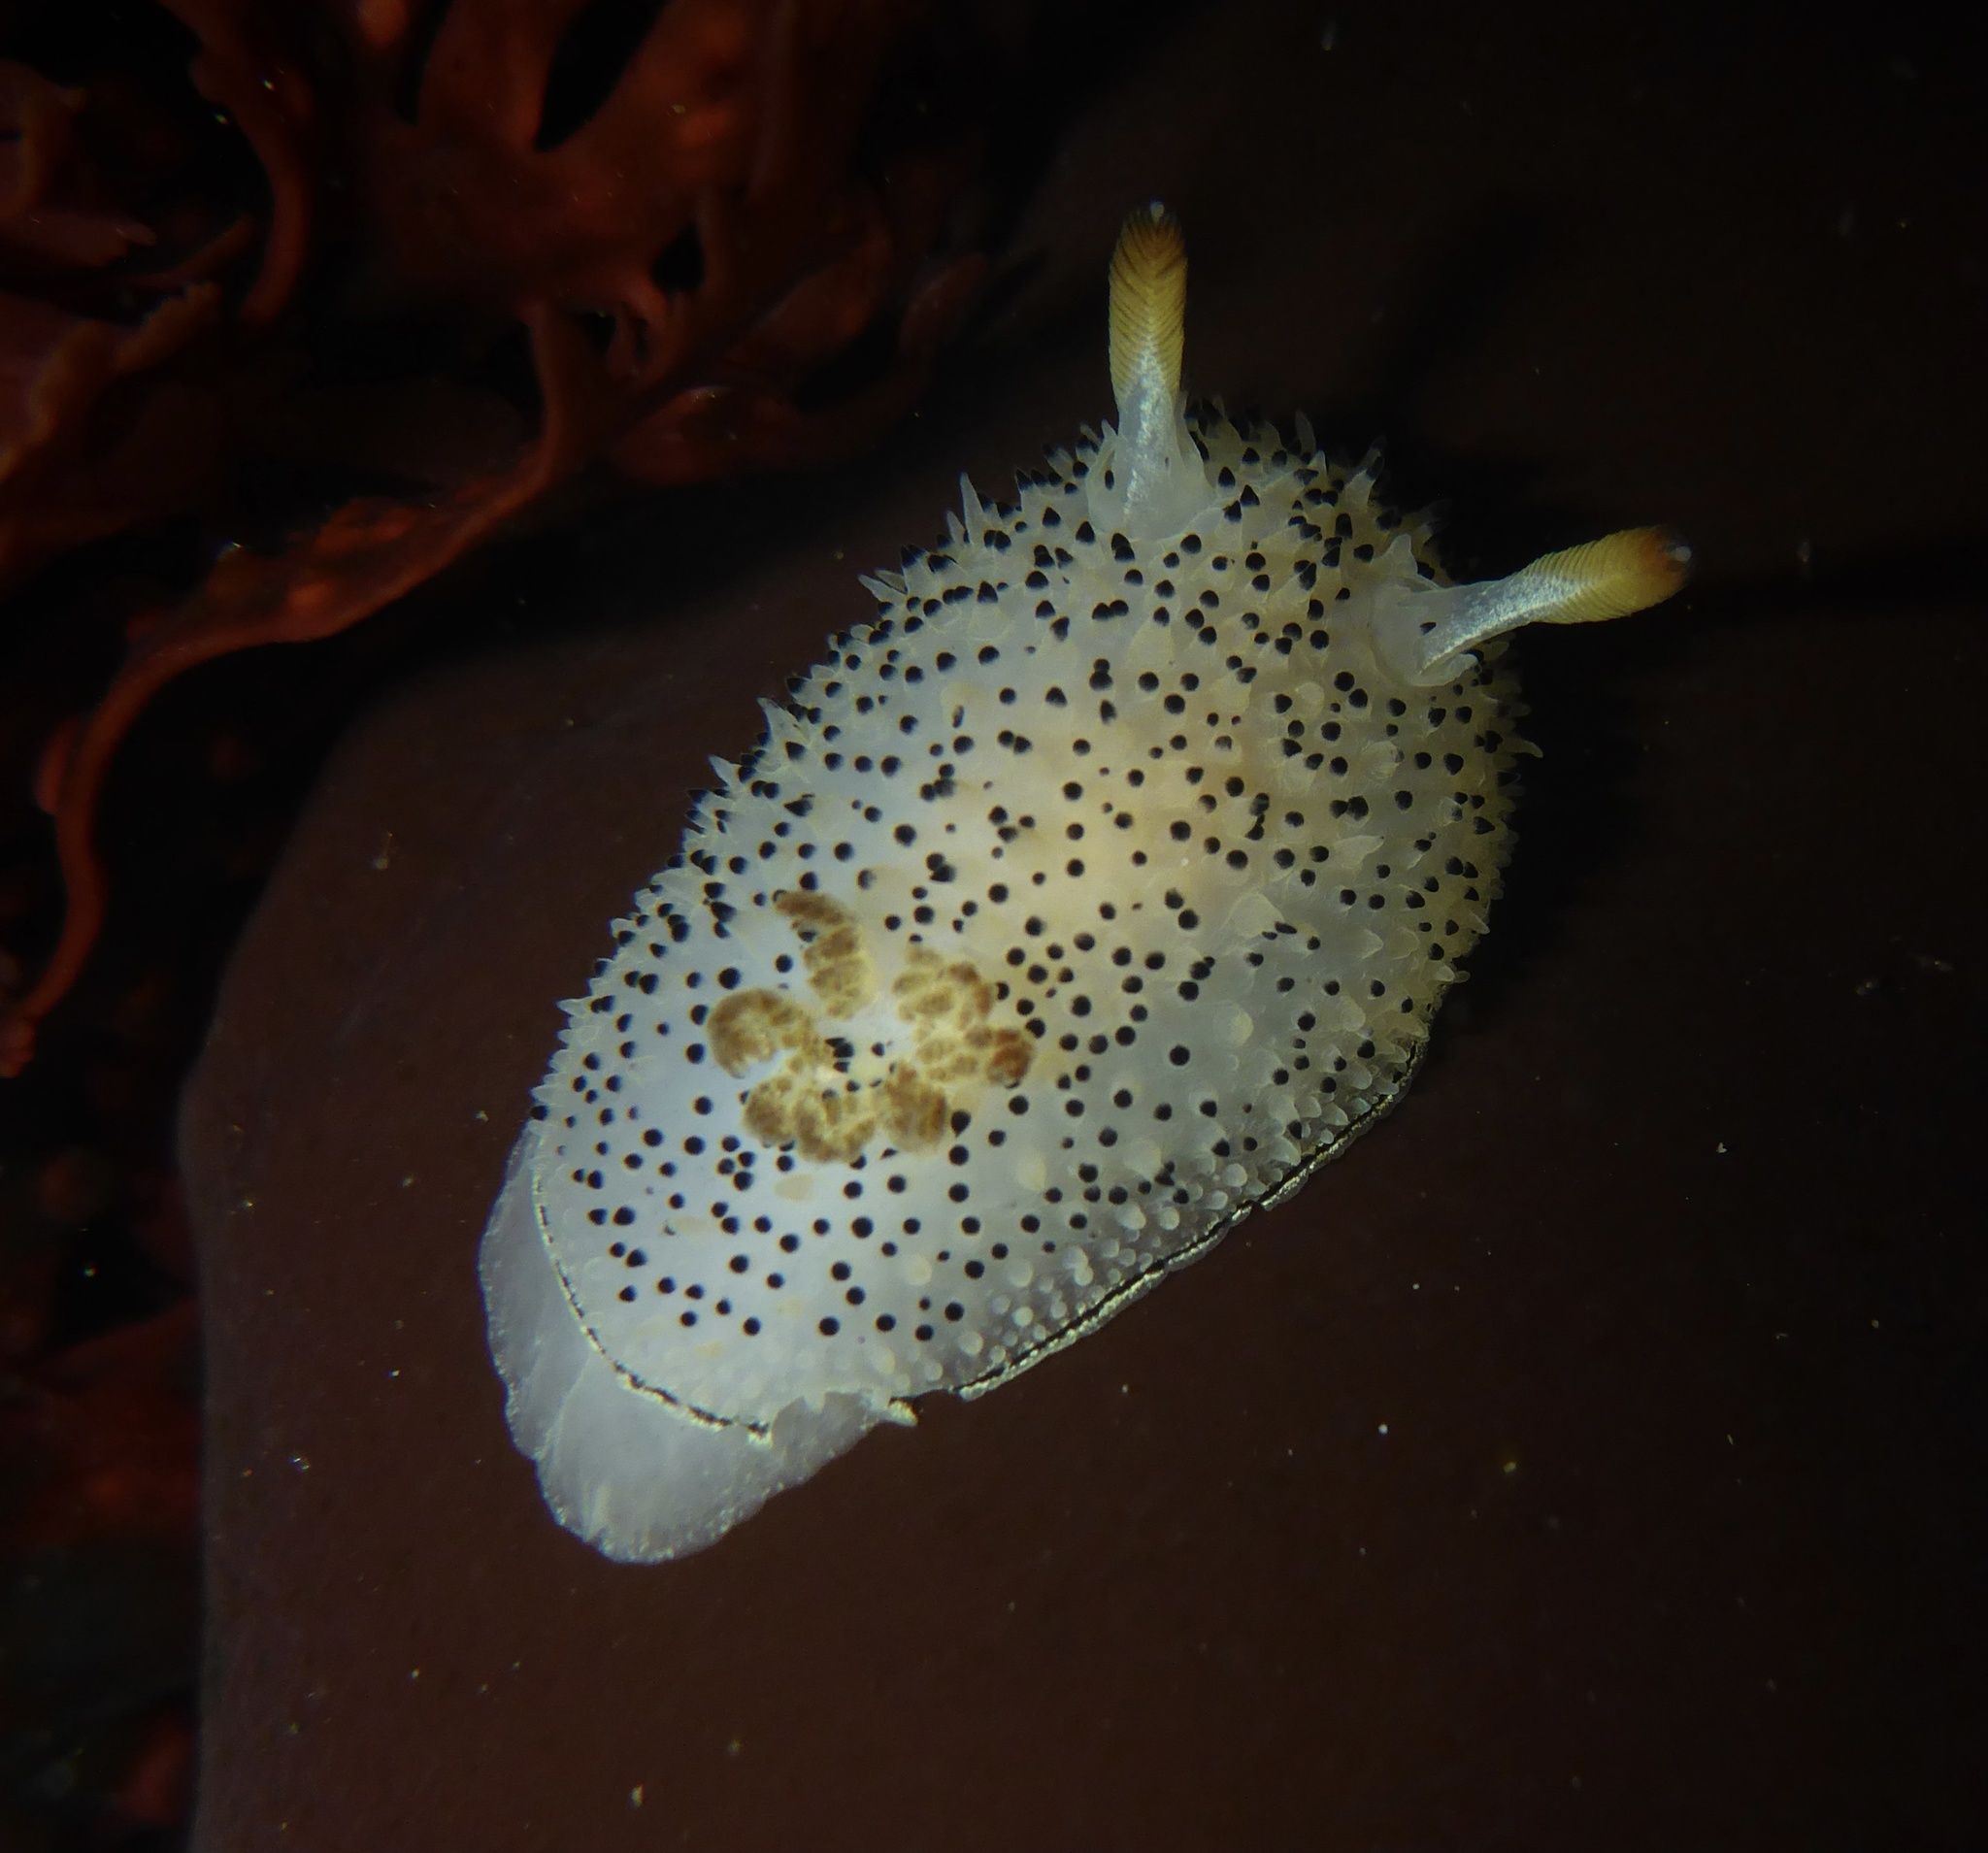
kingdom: Animalia
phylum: Mollusca
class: Gastropoda
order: Nudibranchia
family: Onchidorididae
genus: Acanthodoris
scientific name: Acanthodoris rhodoceras
